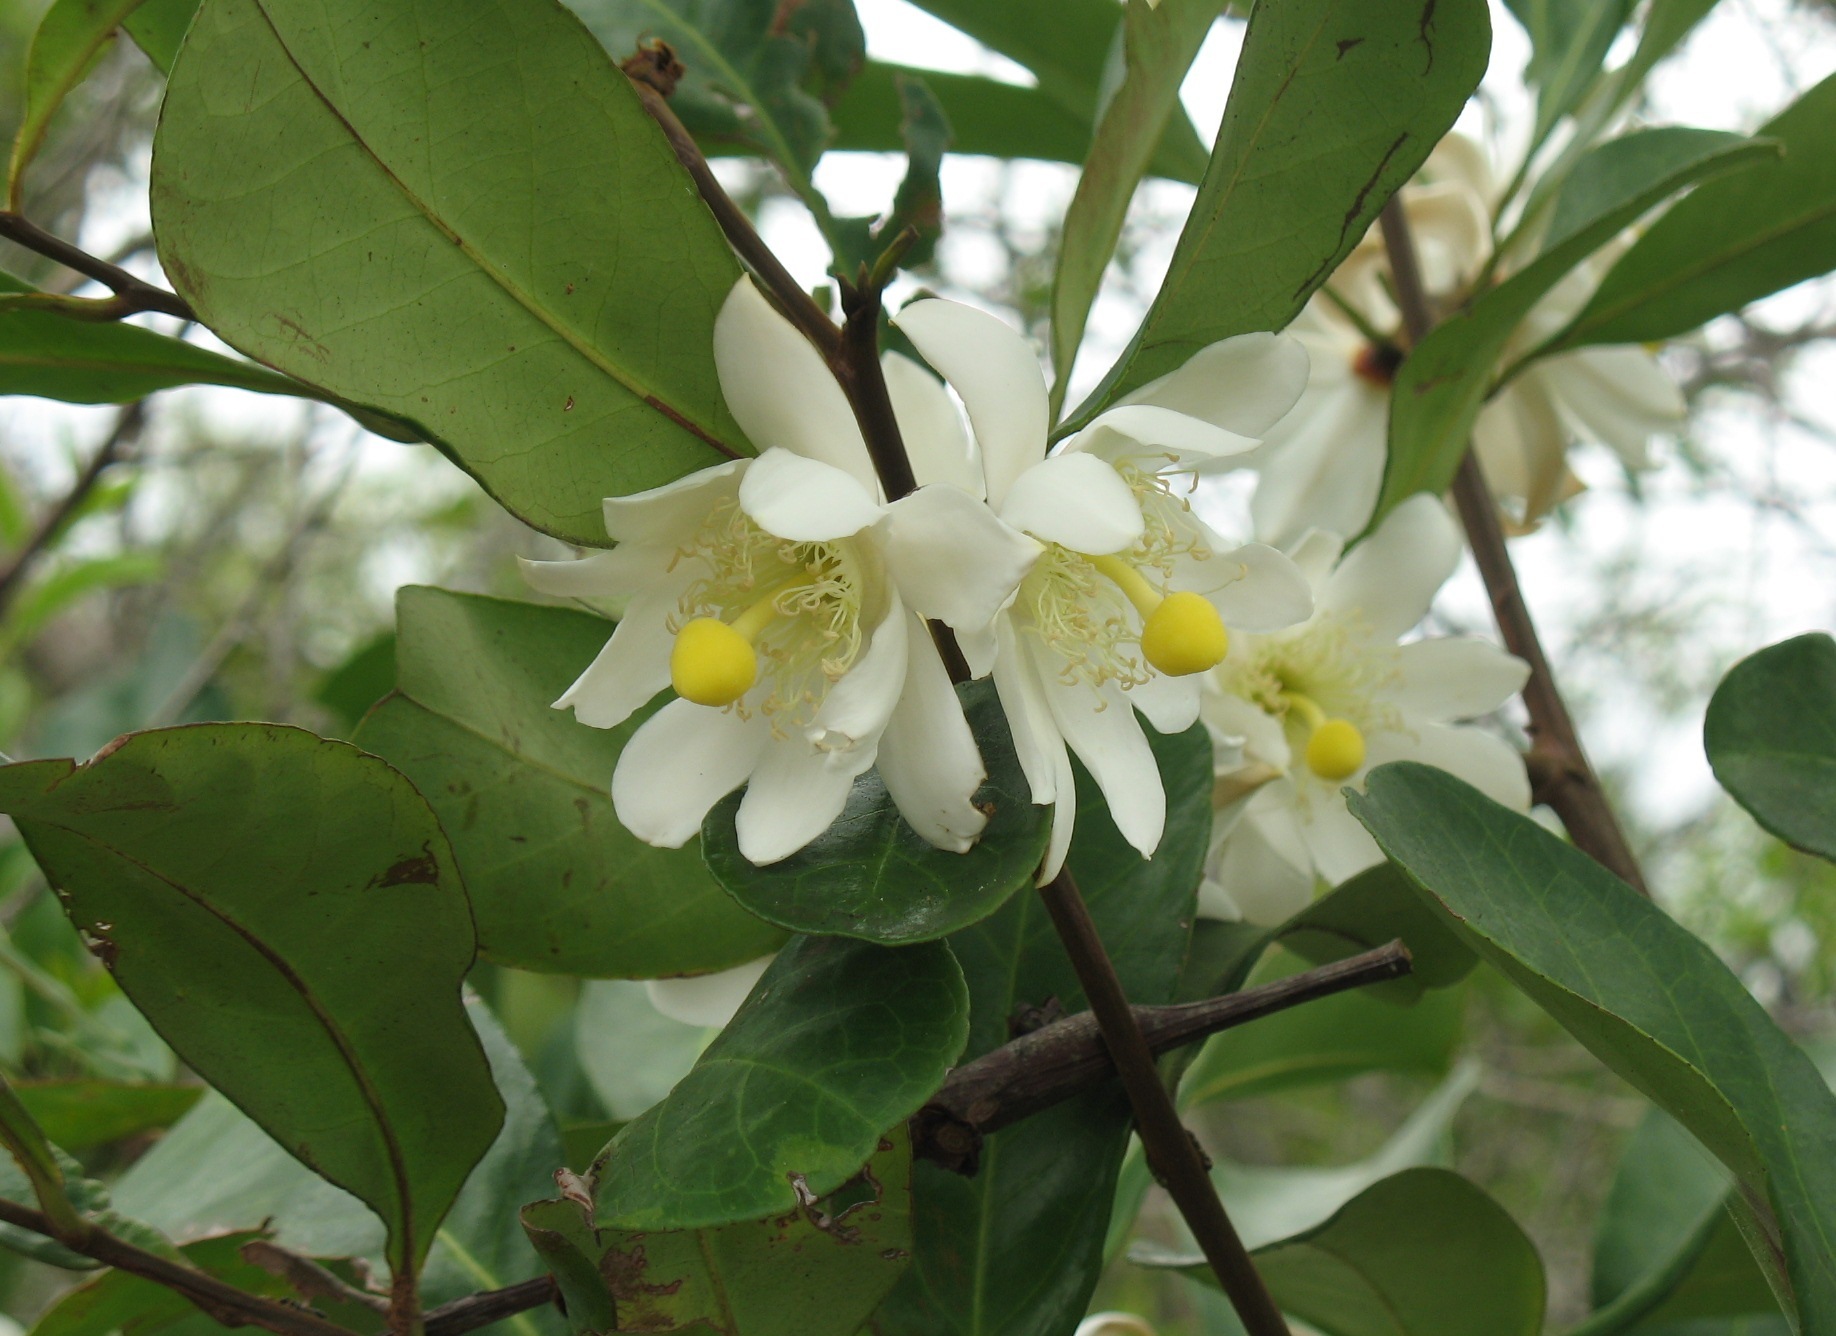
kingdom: Plantae
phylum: Tracheophyta
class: Magnoliopsida
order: Malpighiales
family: Passifloraceae
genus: Barteria
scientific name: Barteria nigritana
